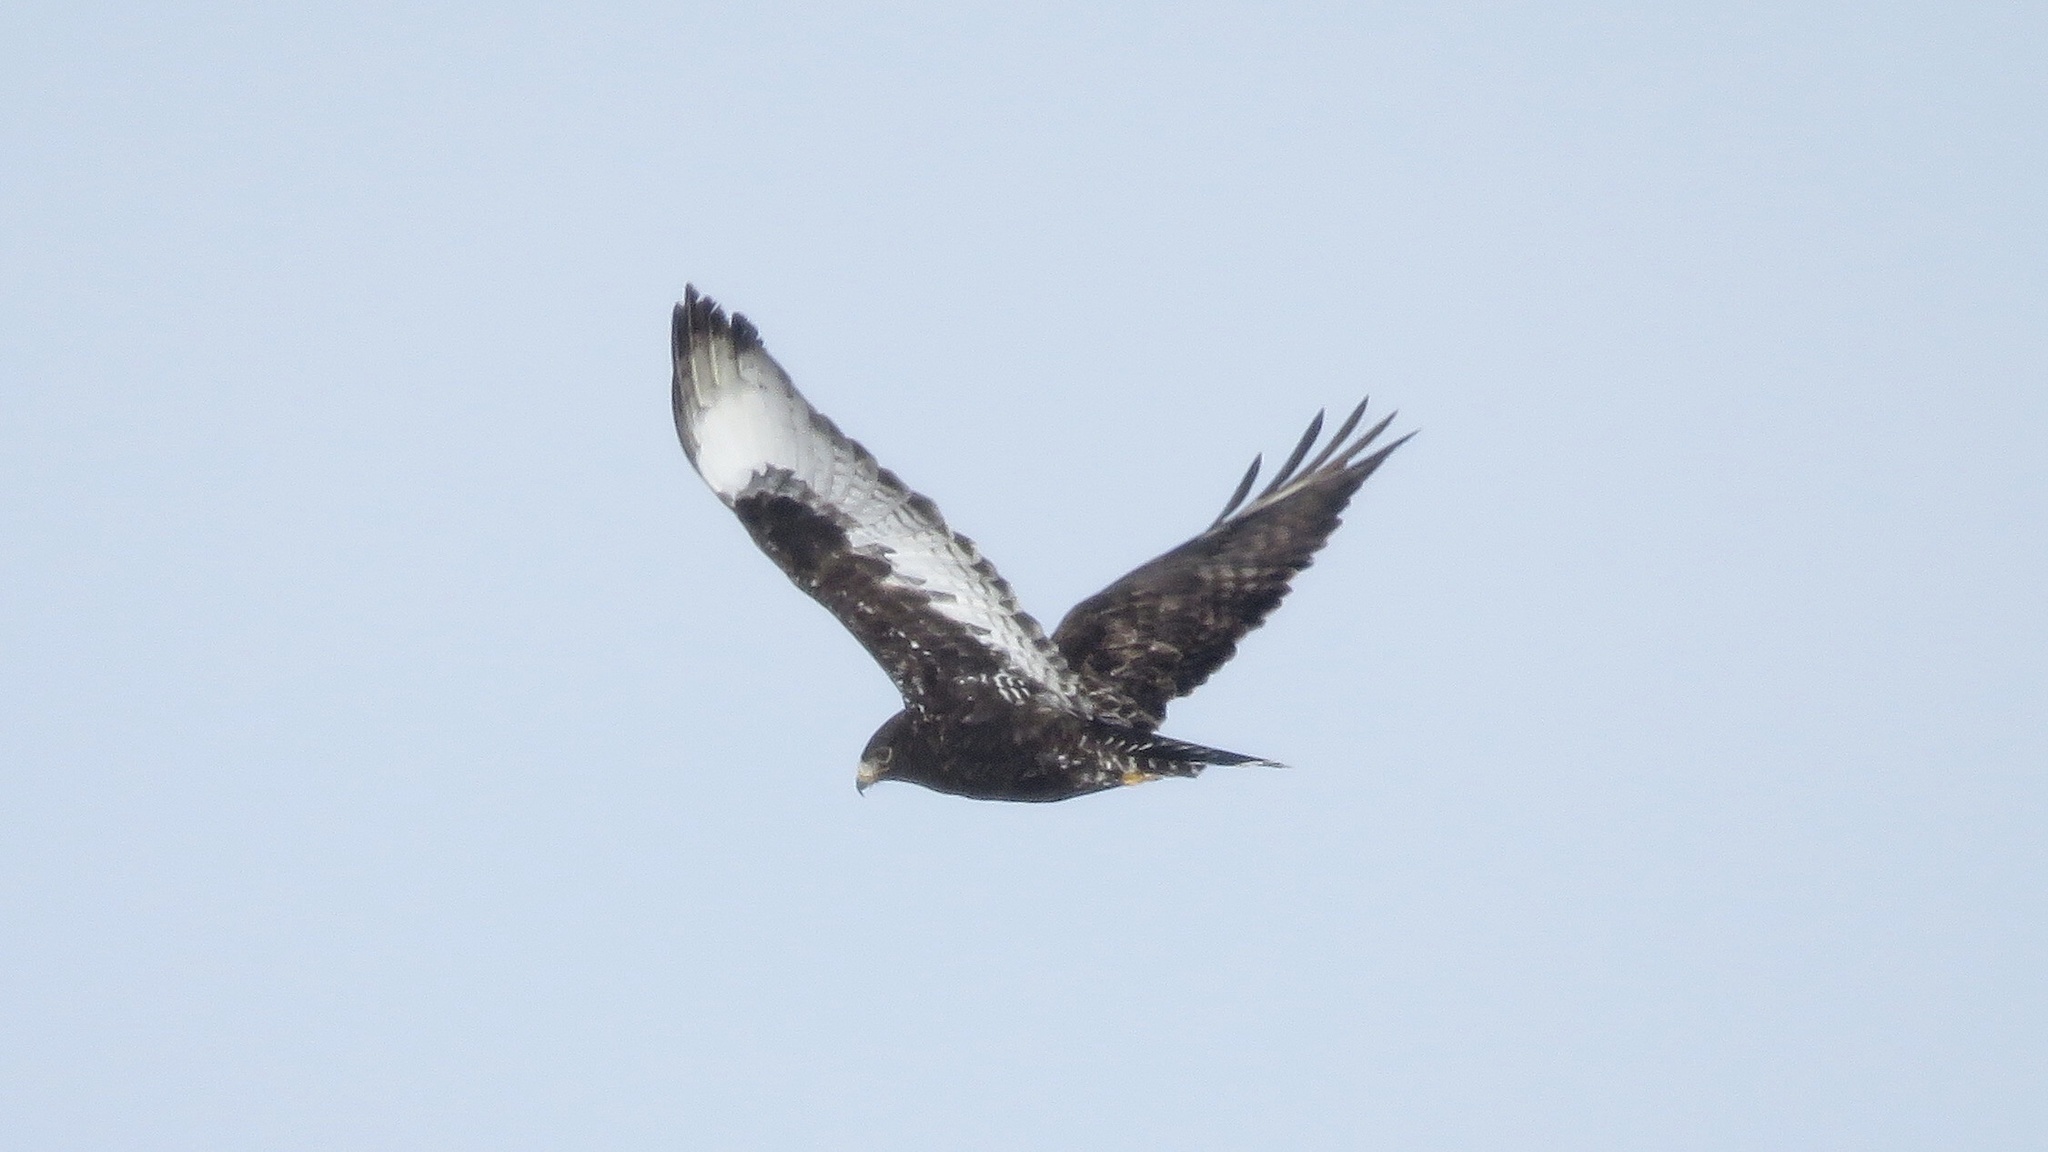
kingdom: Animalia
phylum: Chordata
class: Aves
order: Accipitriformes
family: Accipitridae
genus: Buteo
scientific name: Buteo lagopus
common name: Rough-legged buzzard
